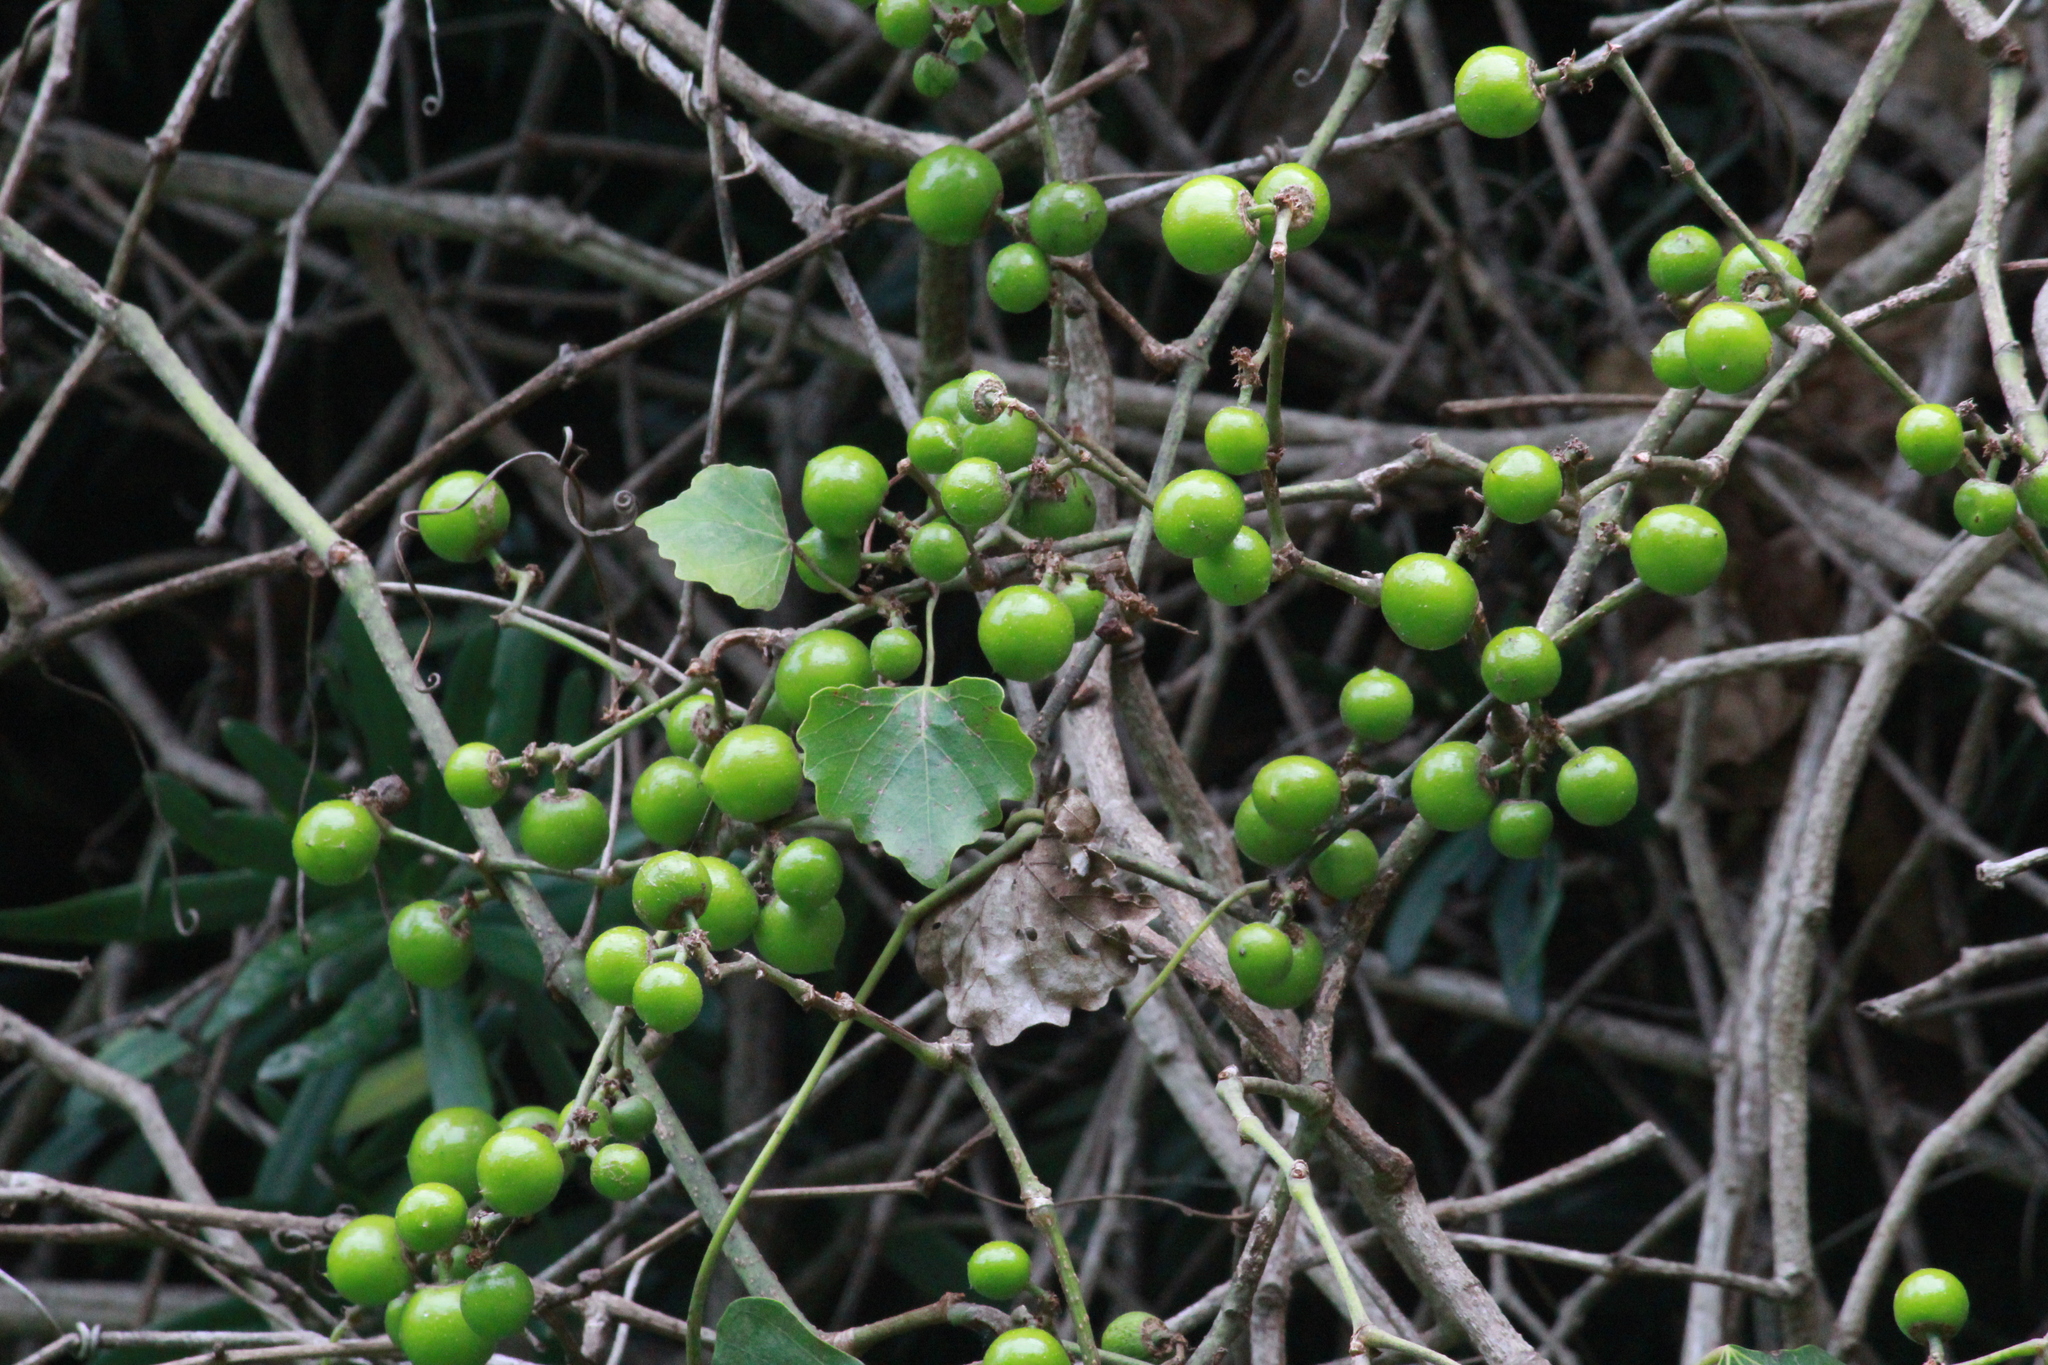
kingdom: Plantae
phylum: Tracheophyta
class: Magnoliopsida
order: Vitales
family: Vitaceae
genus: Rhoicissus
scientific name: Rhoicissus tomentosa
